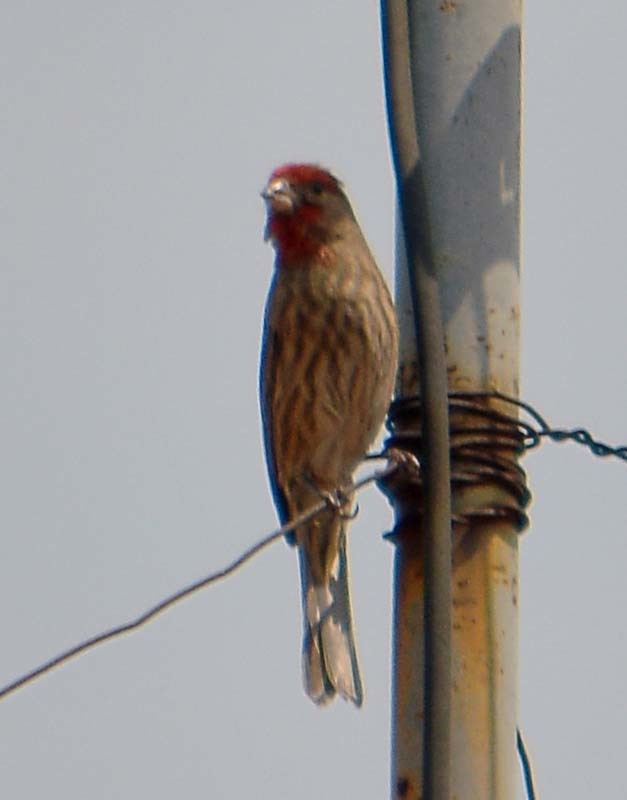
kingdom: Animalia
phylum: Chordata
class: Aves
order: Passeriformes
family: Fringillidae
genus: Haemorhous
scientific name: Haemorhous mexicanus
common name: House finch
